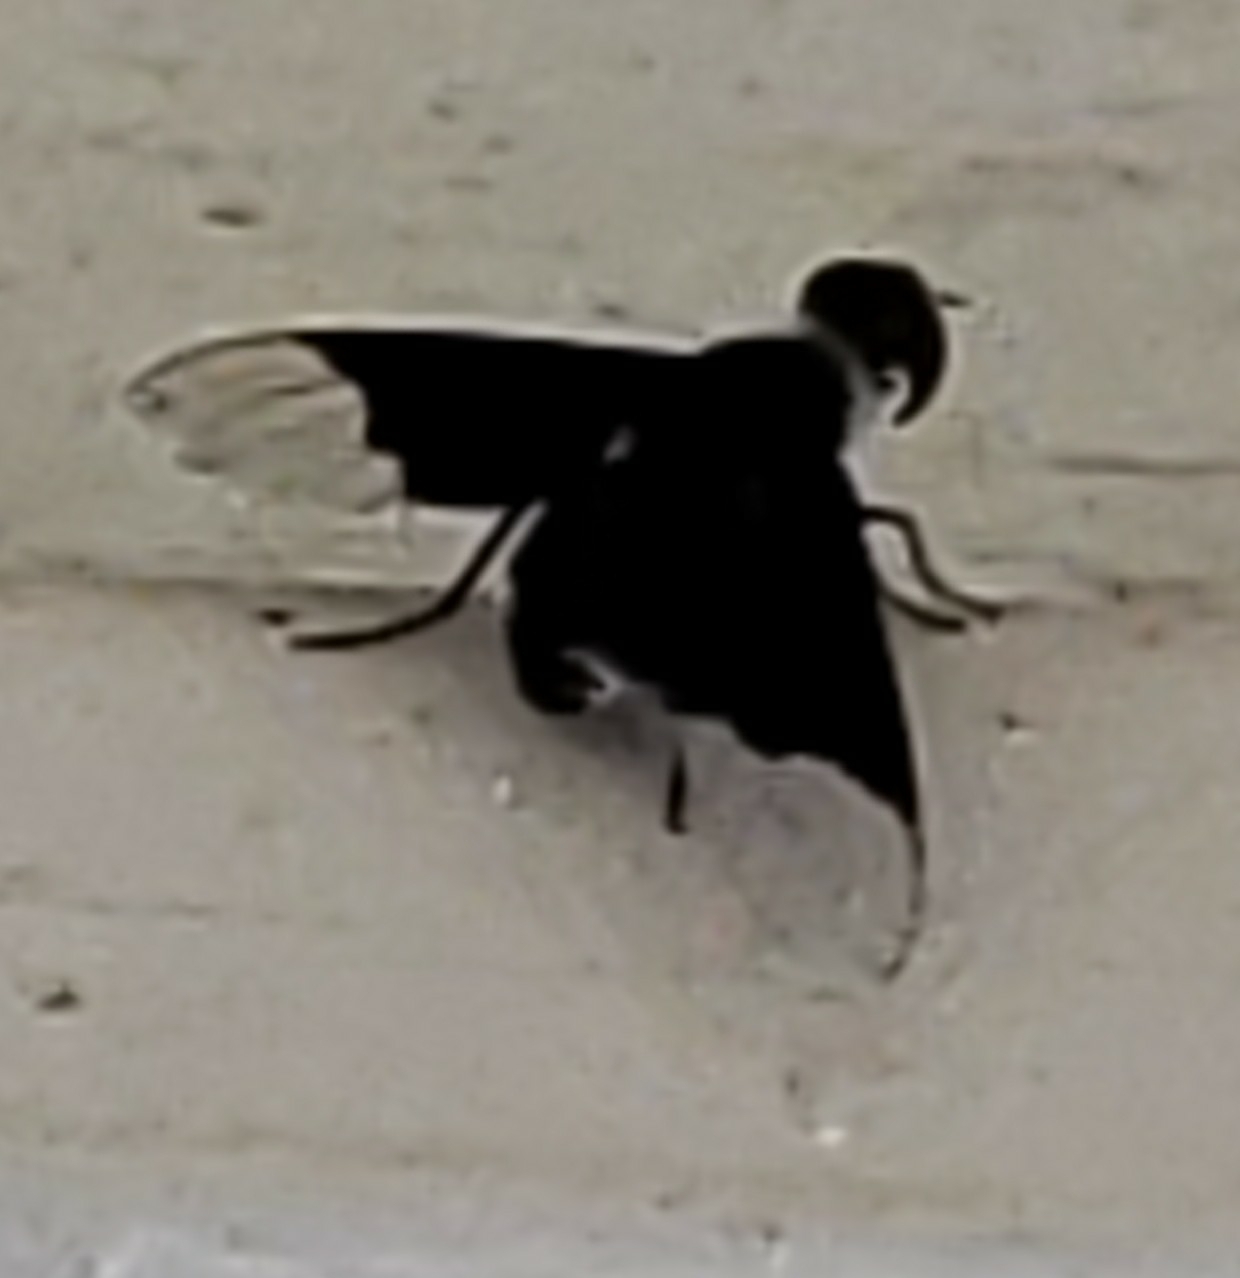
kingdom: Animalia
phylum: Arthropoda
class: Insecta
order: Diptera
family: Bombyliidae
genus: Ins
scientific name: Ins celeris
